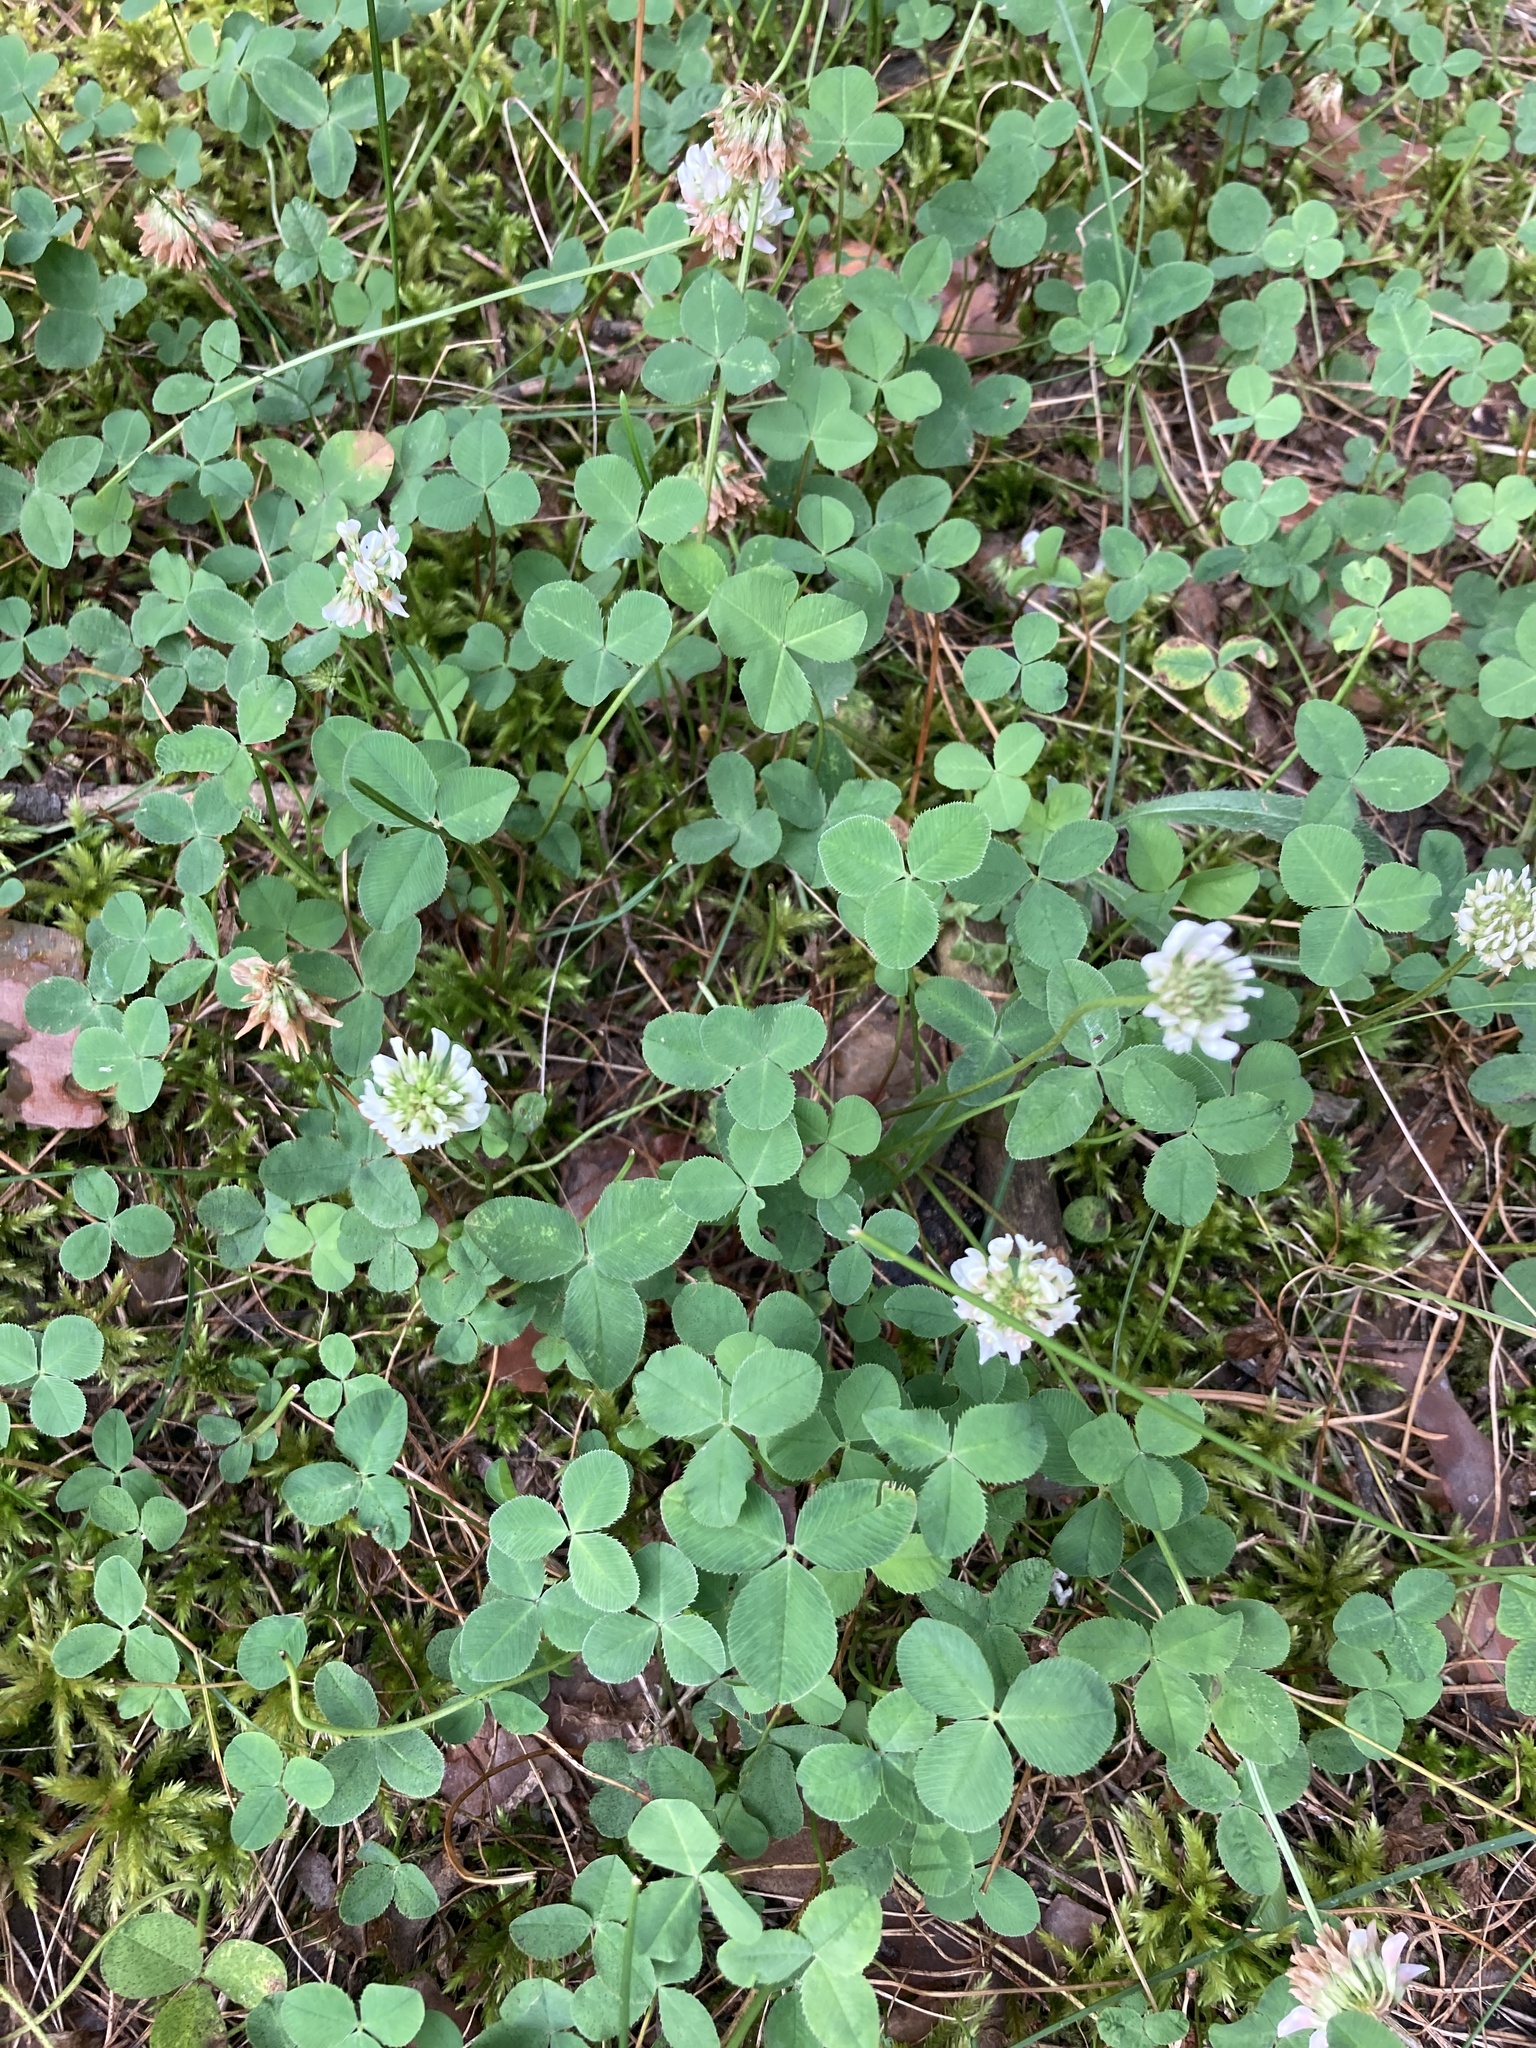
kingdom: Plantae
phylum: Tracheophyta
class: Magnoliopsida
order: Fabales
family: Fabaceae
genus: Trifolium
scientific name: Trifolium repens
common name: White clover
